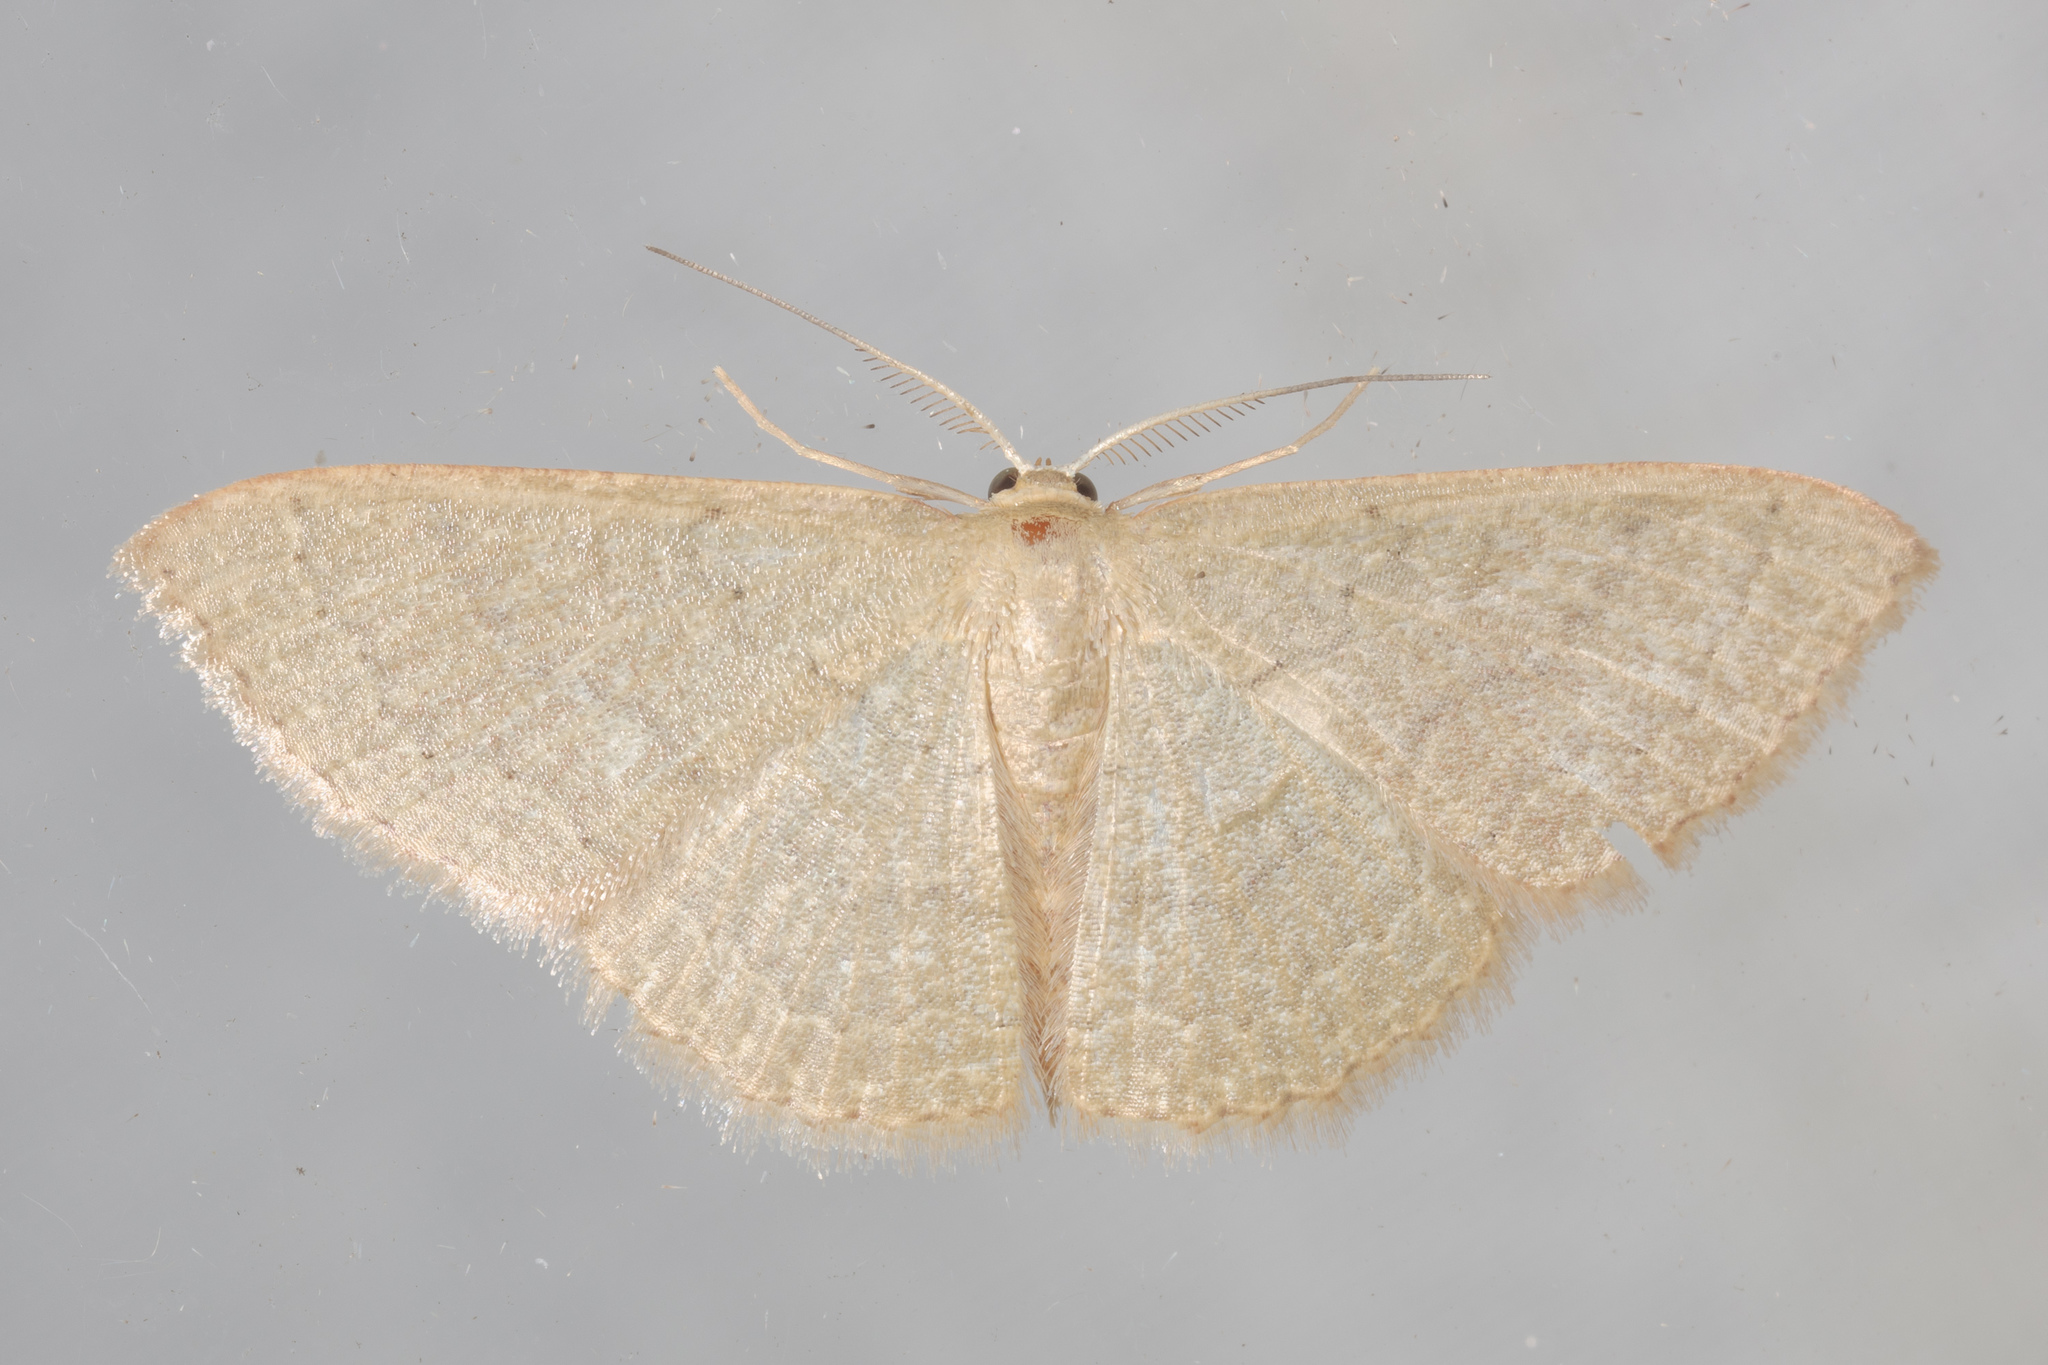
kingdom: Animalia
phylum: Arthropoda
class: Insecta
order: Lepidoptera
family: Geometridae
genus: Pleuroprucha
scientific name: Pleuroprucha insulsaria
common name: Common tan wave
